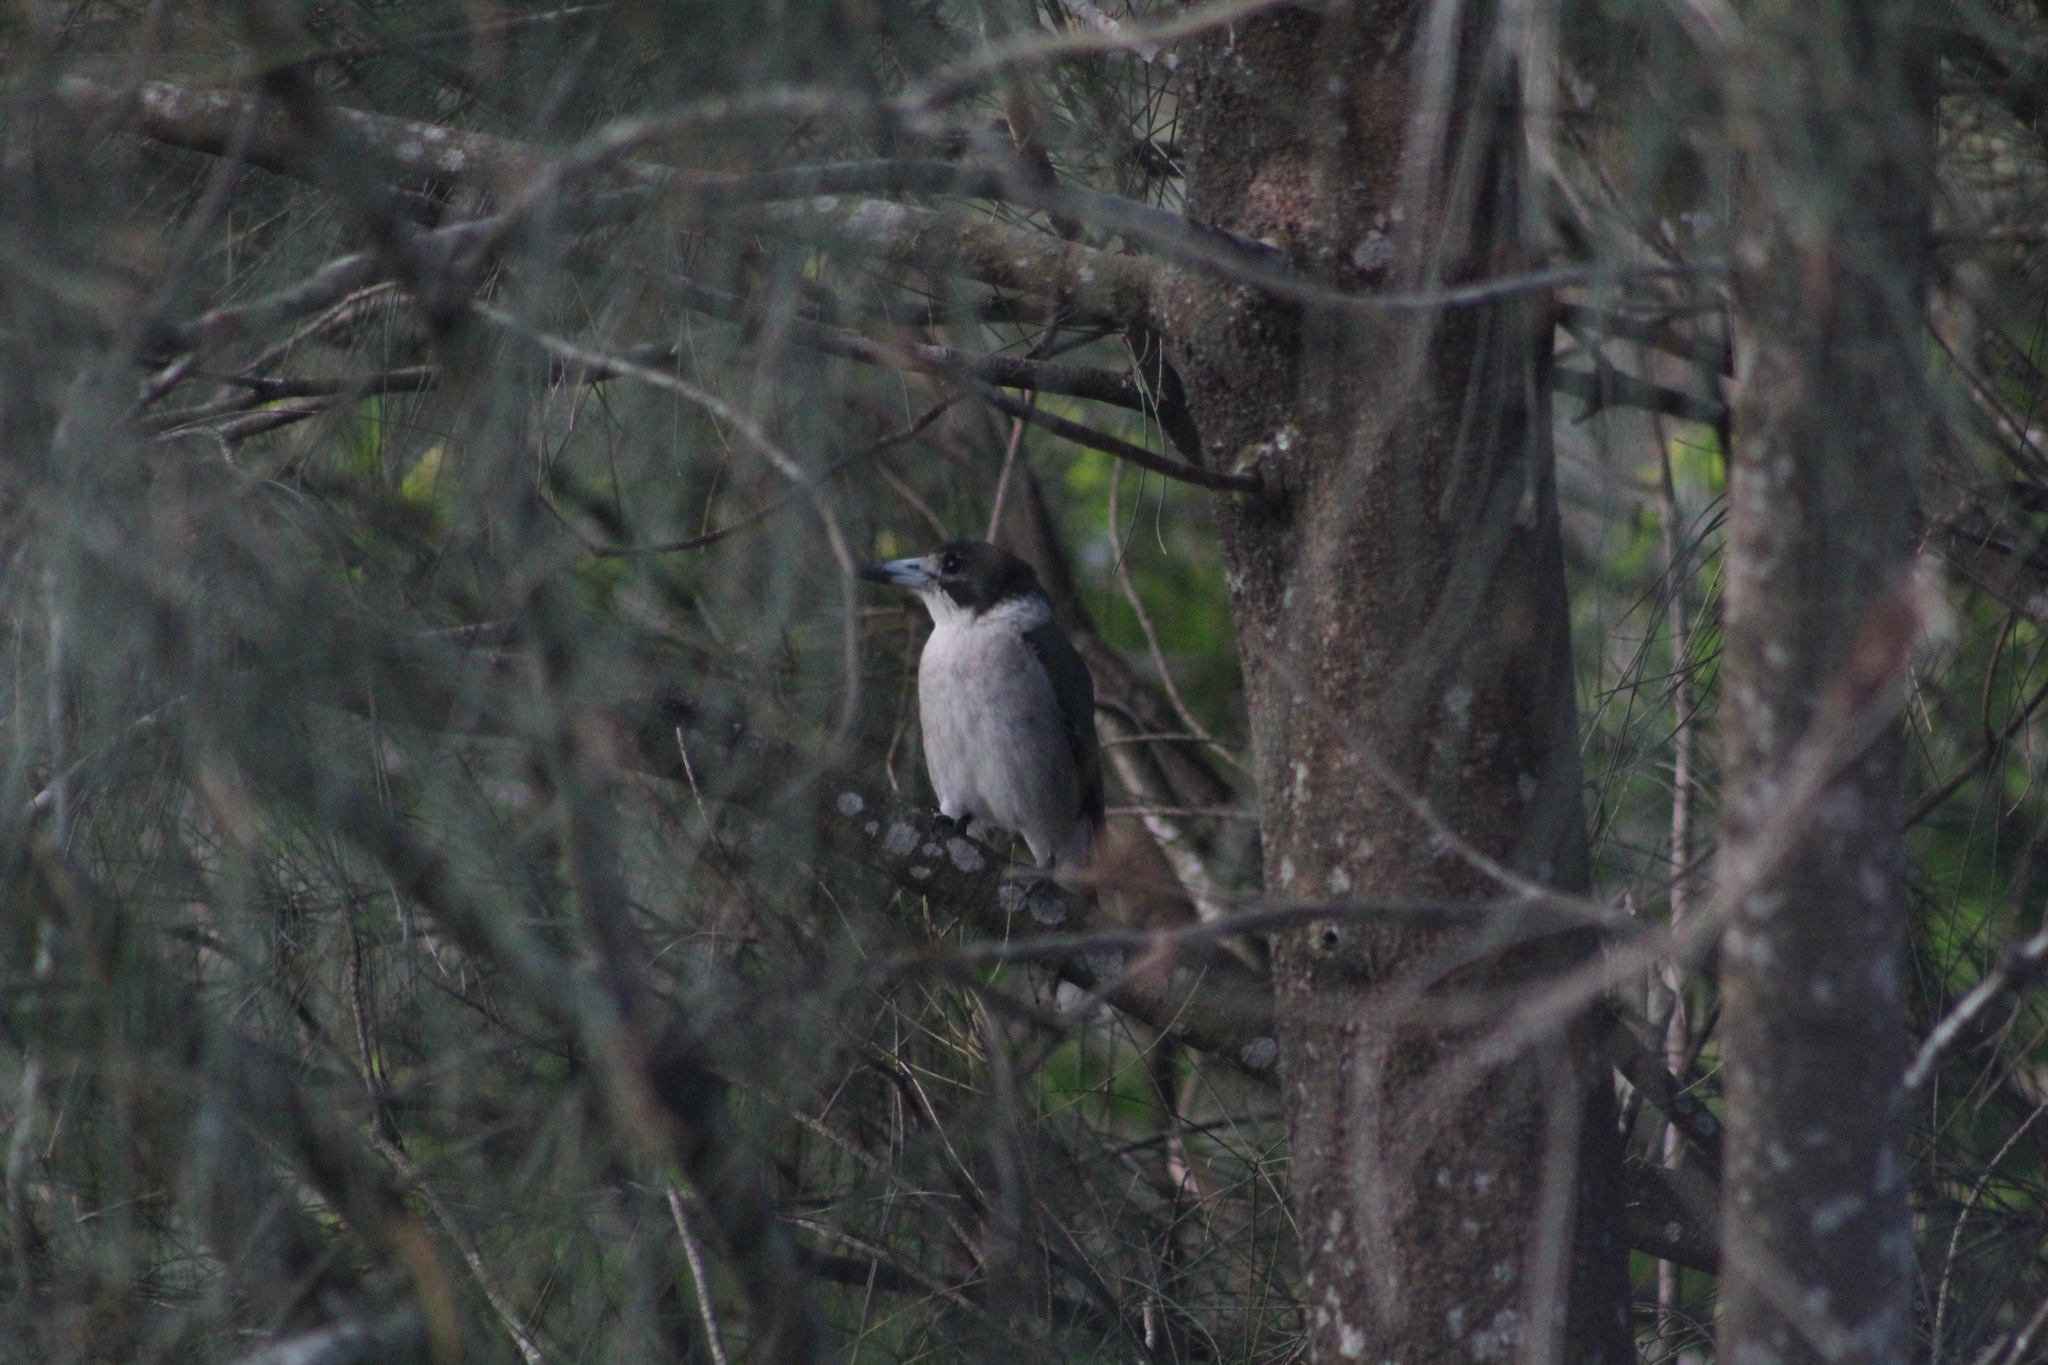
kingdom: Animalia
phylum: Chordata
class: Aves
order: Passeriformes
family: Cracticidae
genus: Cracticus
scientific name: Cracticus torquatus
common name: Grey butcherbird
